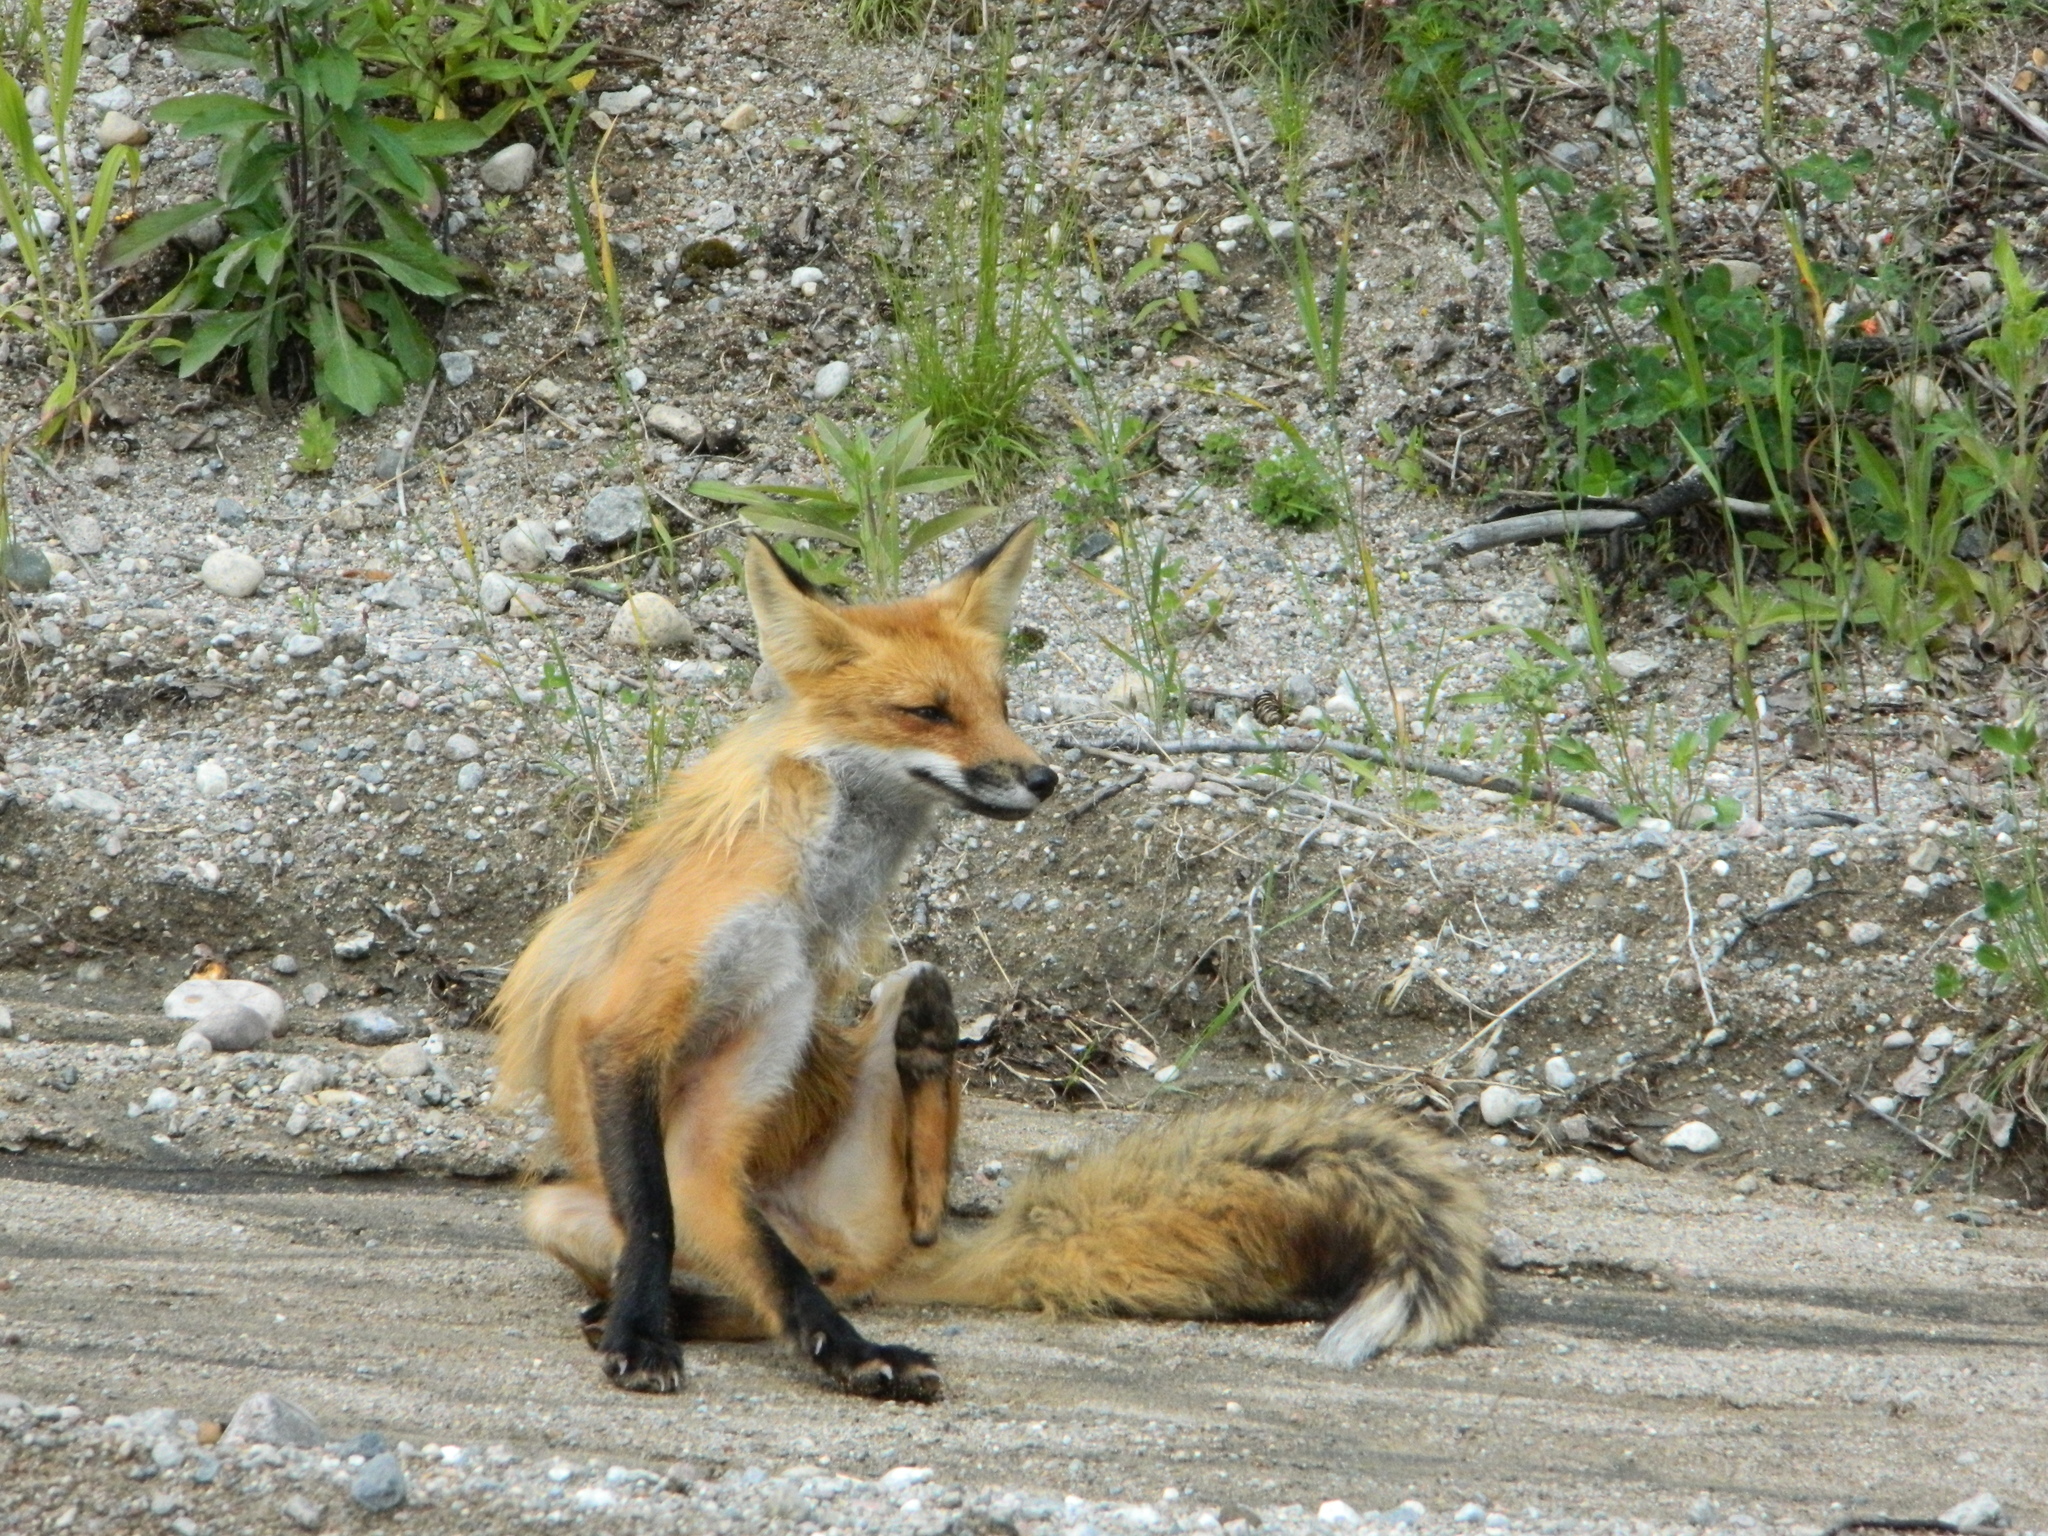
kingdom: Animalia
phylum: Chordata
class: Mammalia
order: Carnivora
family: Canidae
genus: Vulpes
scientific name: Vulpes vulpes
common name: Red fox
